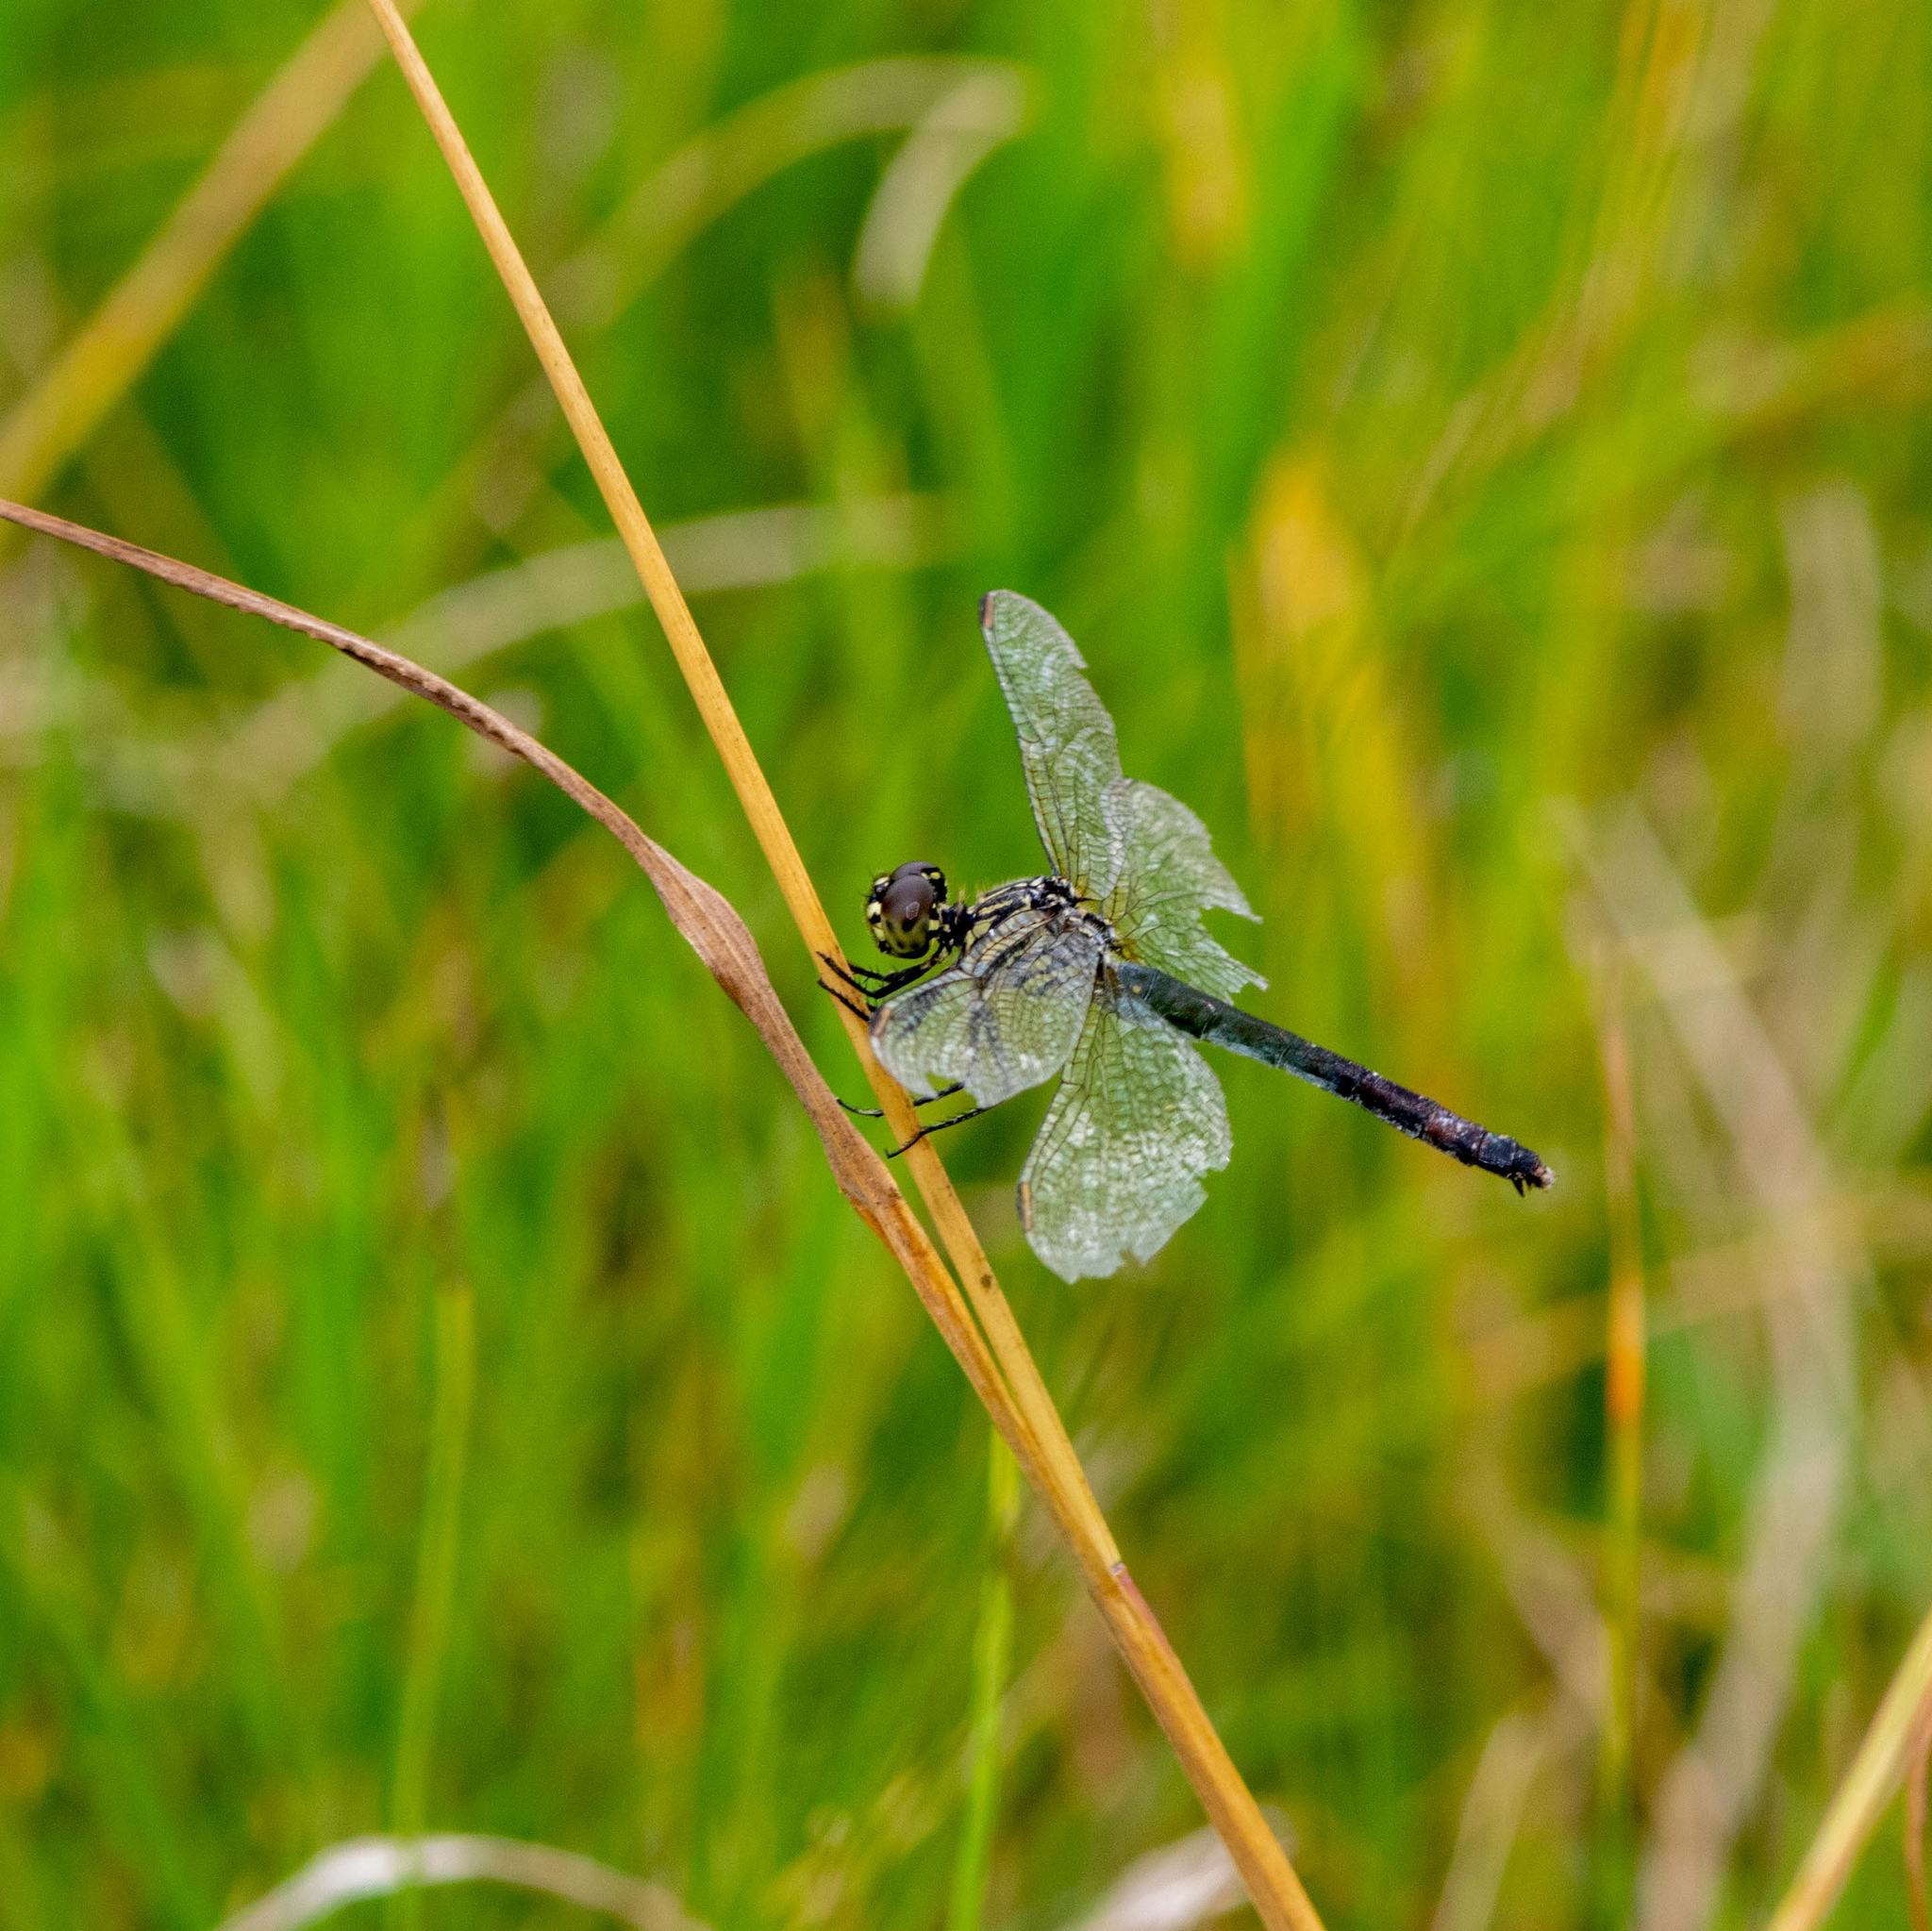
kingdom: Animalia
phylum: Arthropoda
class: Insecta
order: Odonata
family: Libellulidae
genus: Erythrodiplax
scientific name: Erythrodiplax berenice
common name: Seaside dragonlet
